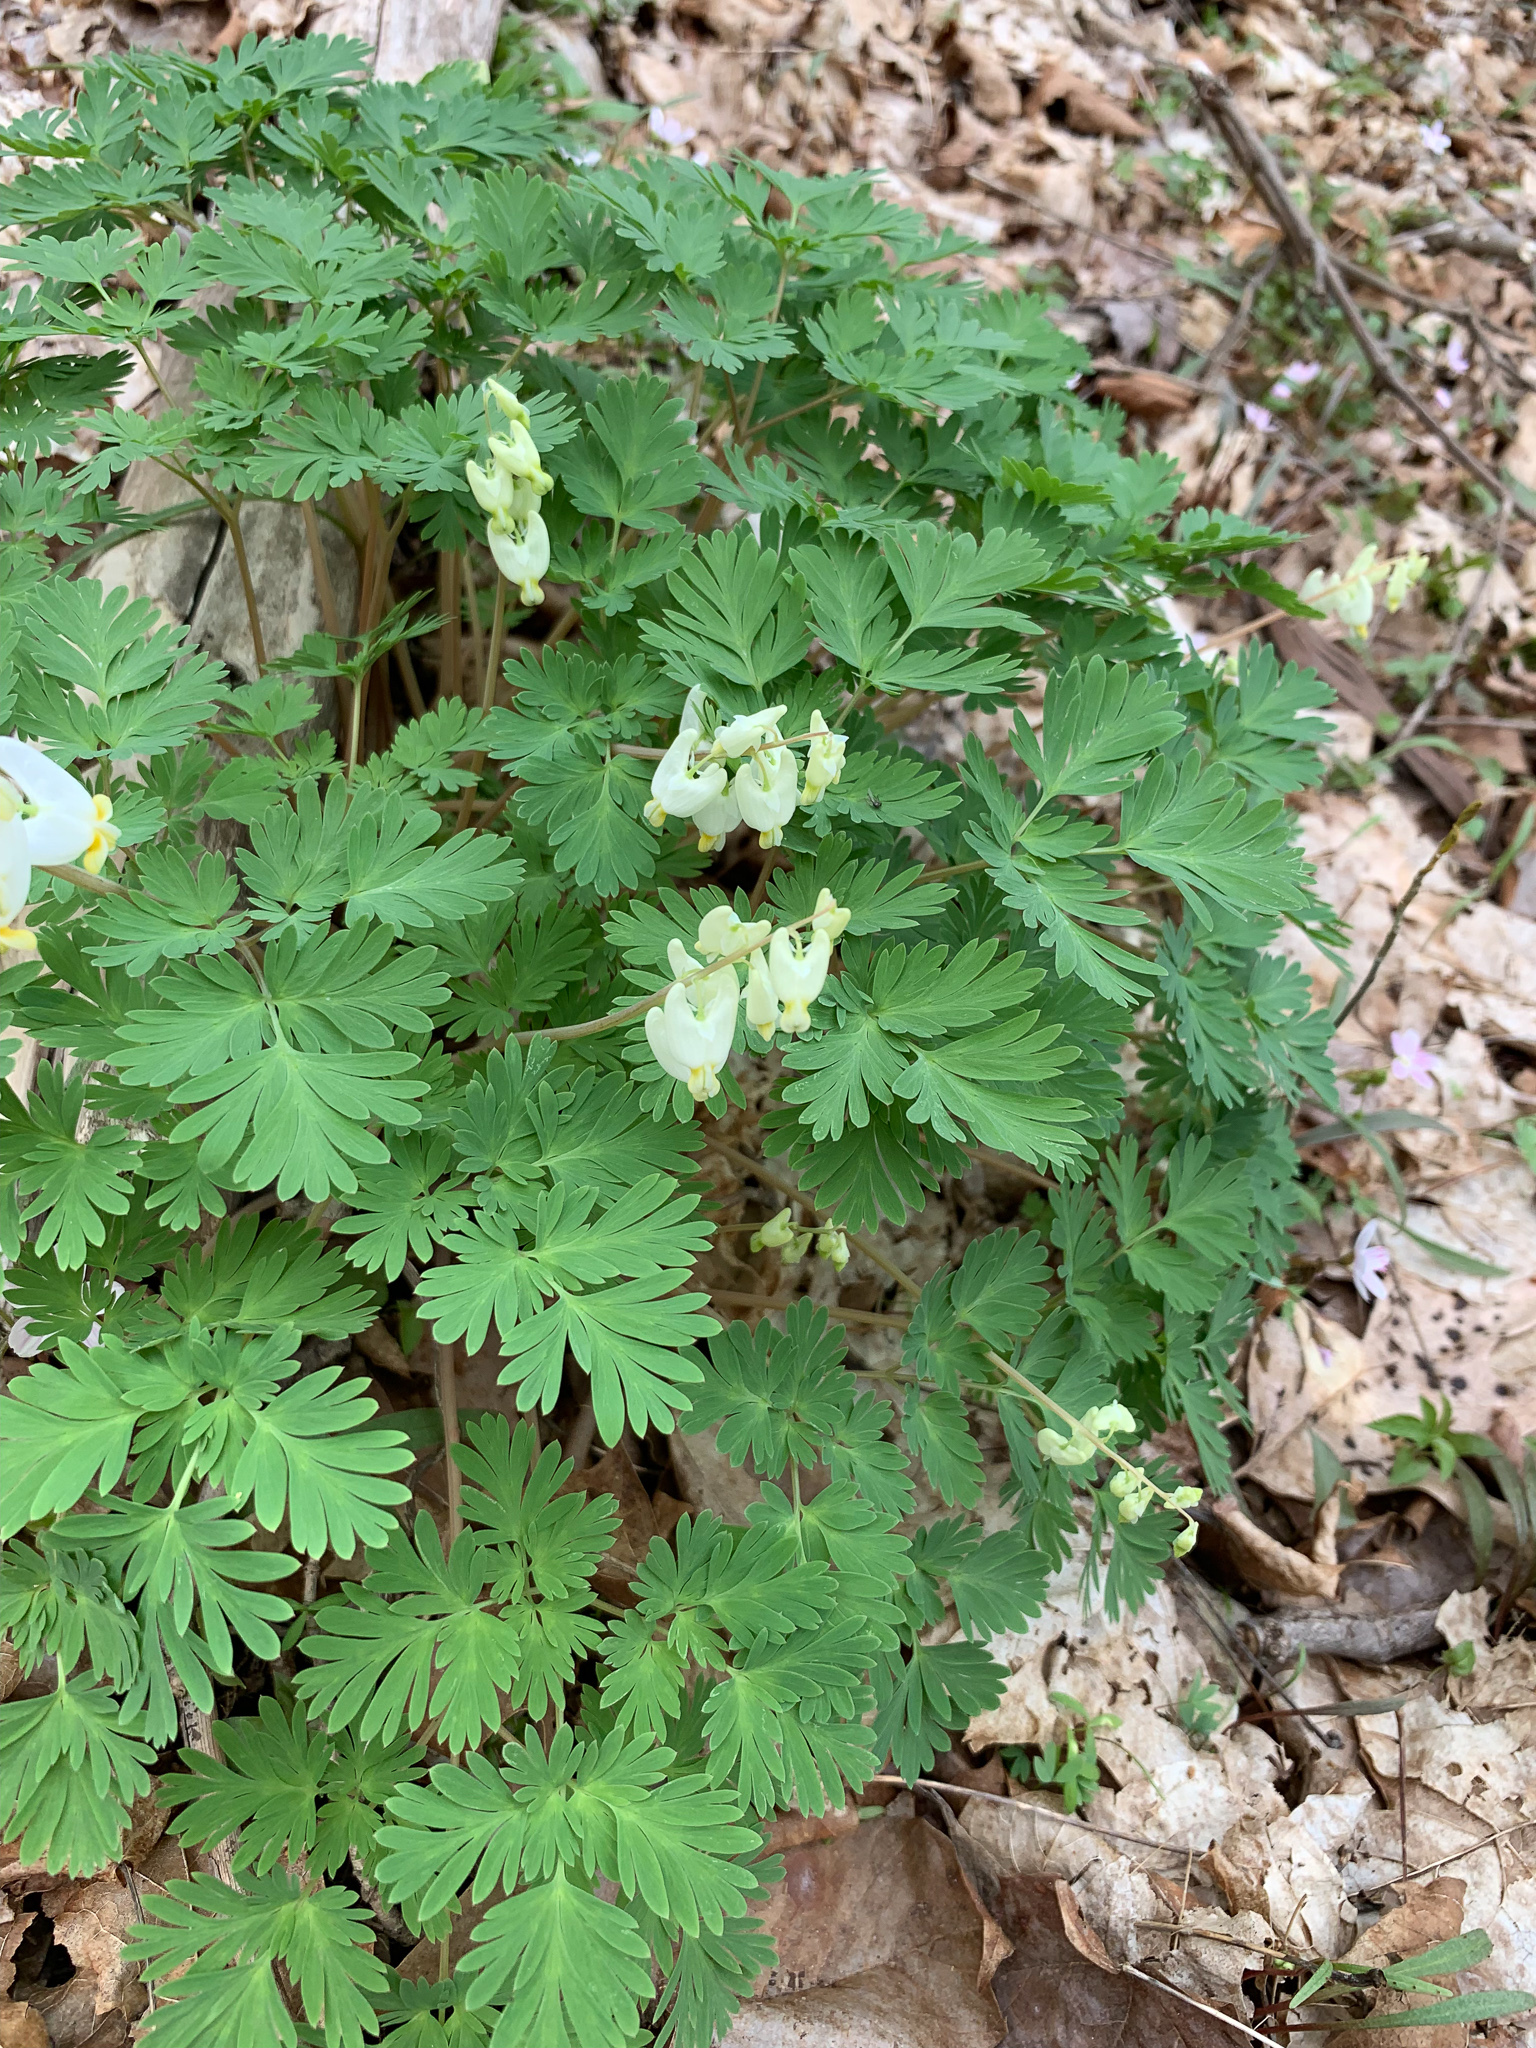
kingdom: Plantae
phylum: Tracheophyta
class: Magnoliopsida
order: Ranunculales
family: Papaveraceae
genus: Dicentra
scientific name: Dicentra cucullaria
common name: Dutchman's breeches
